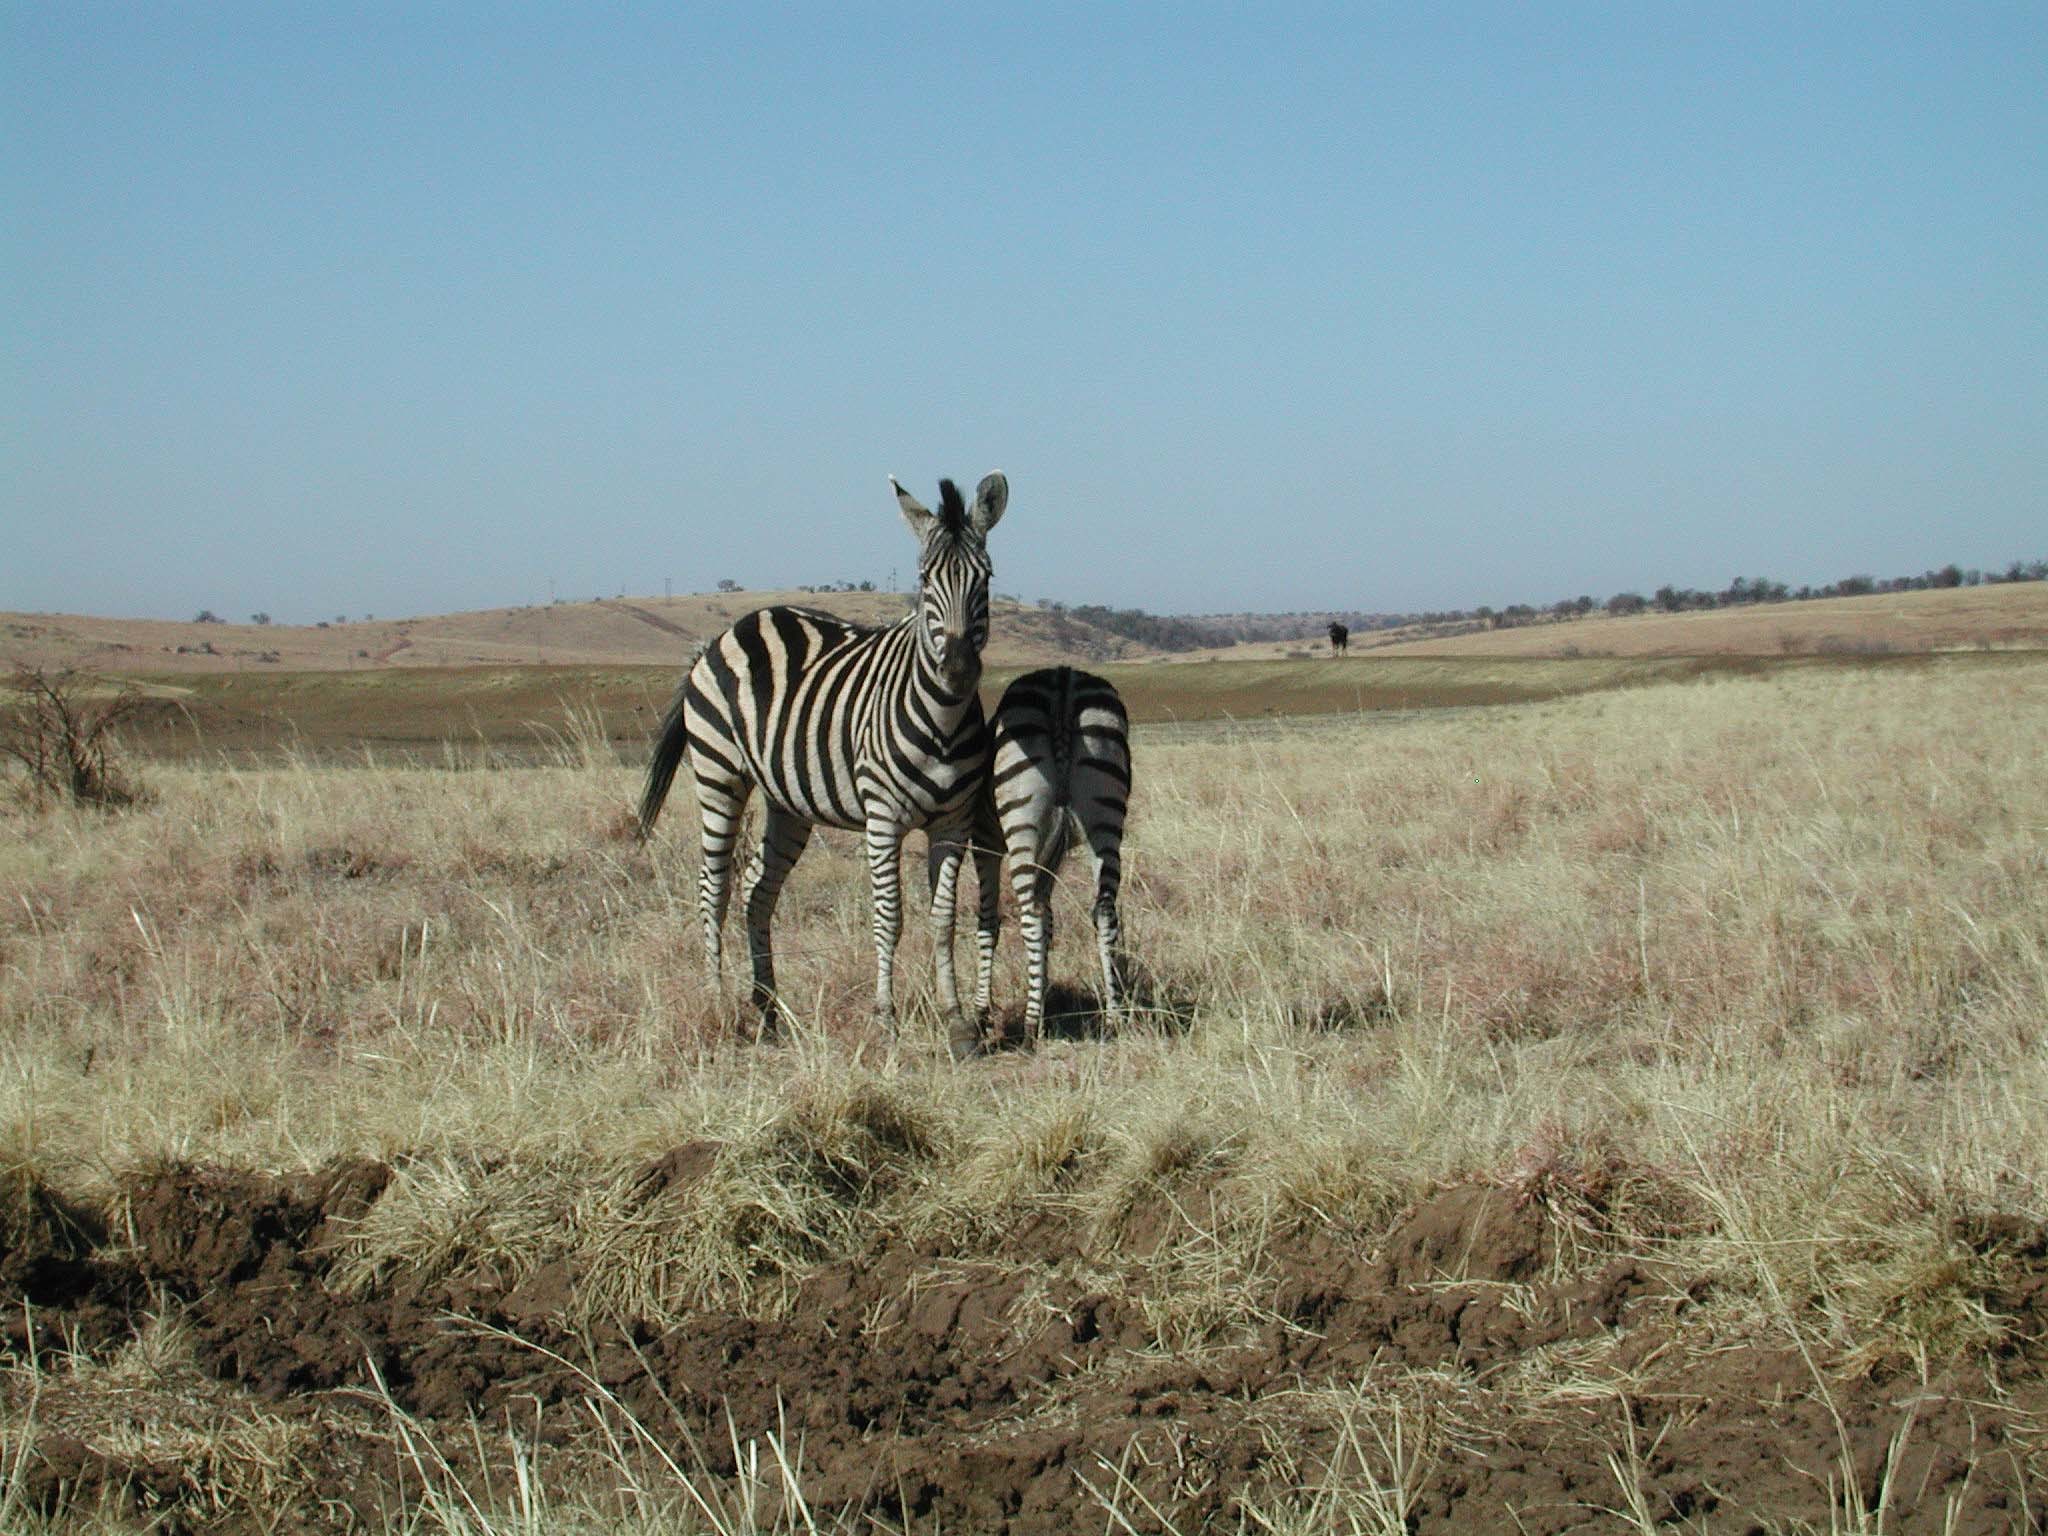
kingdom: Animalia
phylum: Chordata
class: Mammalia
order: Perissodactyla
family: Equidae
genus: Equus
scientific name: Equus quagga
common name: Plains zebra
